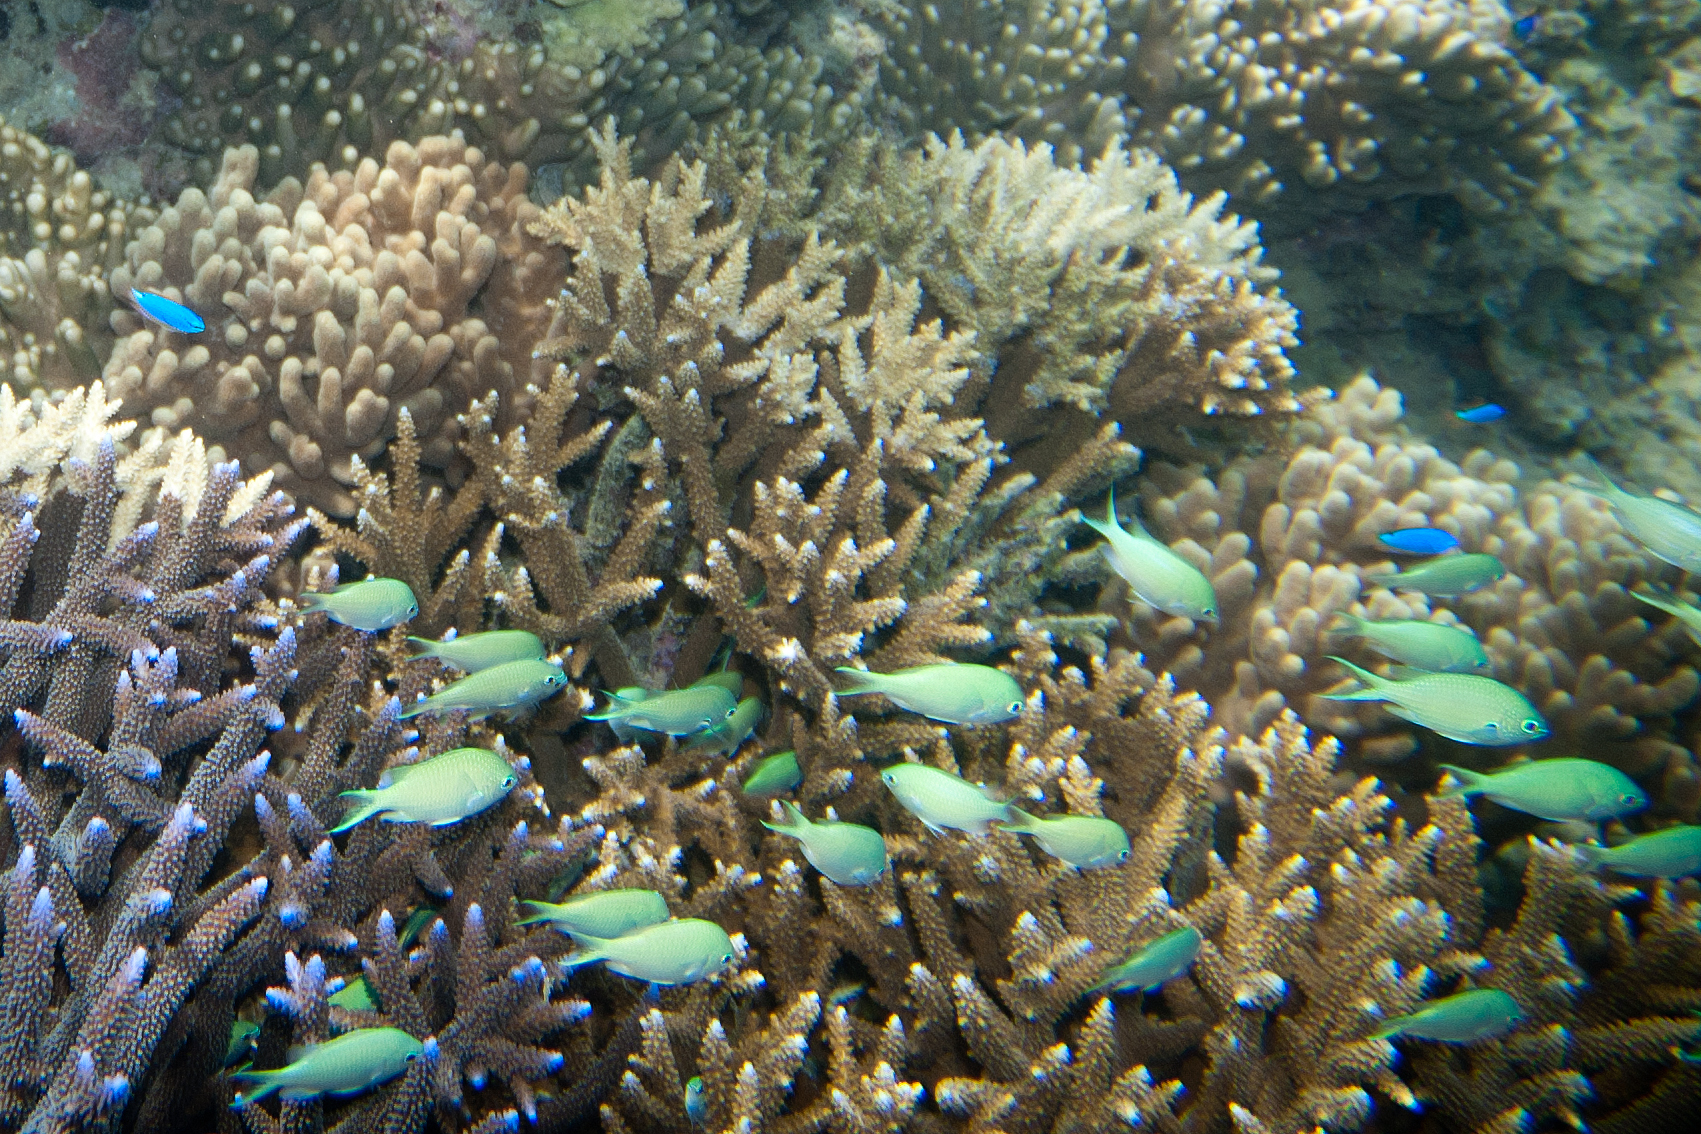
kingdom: Animalia
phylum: Chordata
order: Perciformes
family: Pomacentridae
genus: Chromis
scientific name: Chromis atripectoralis
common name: Black-axil chromis
